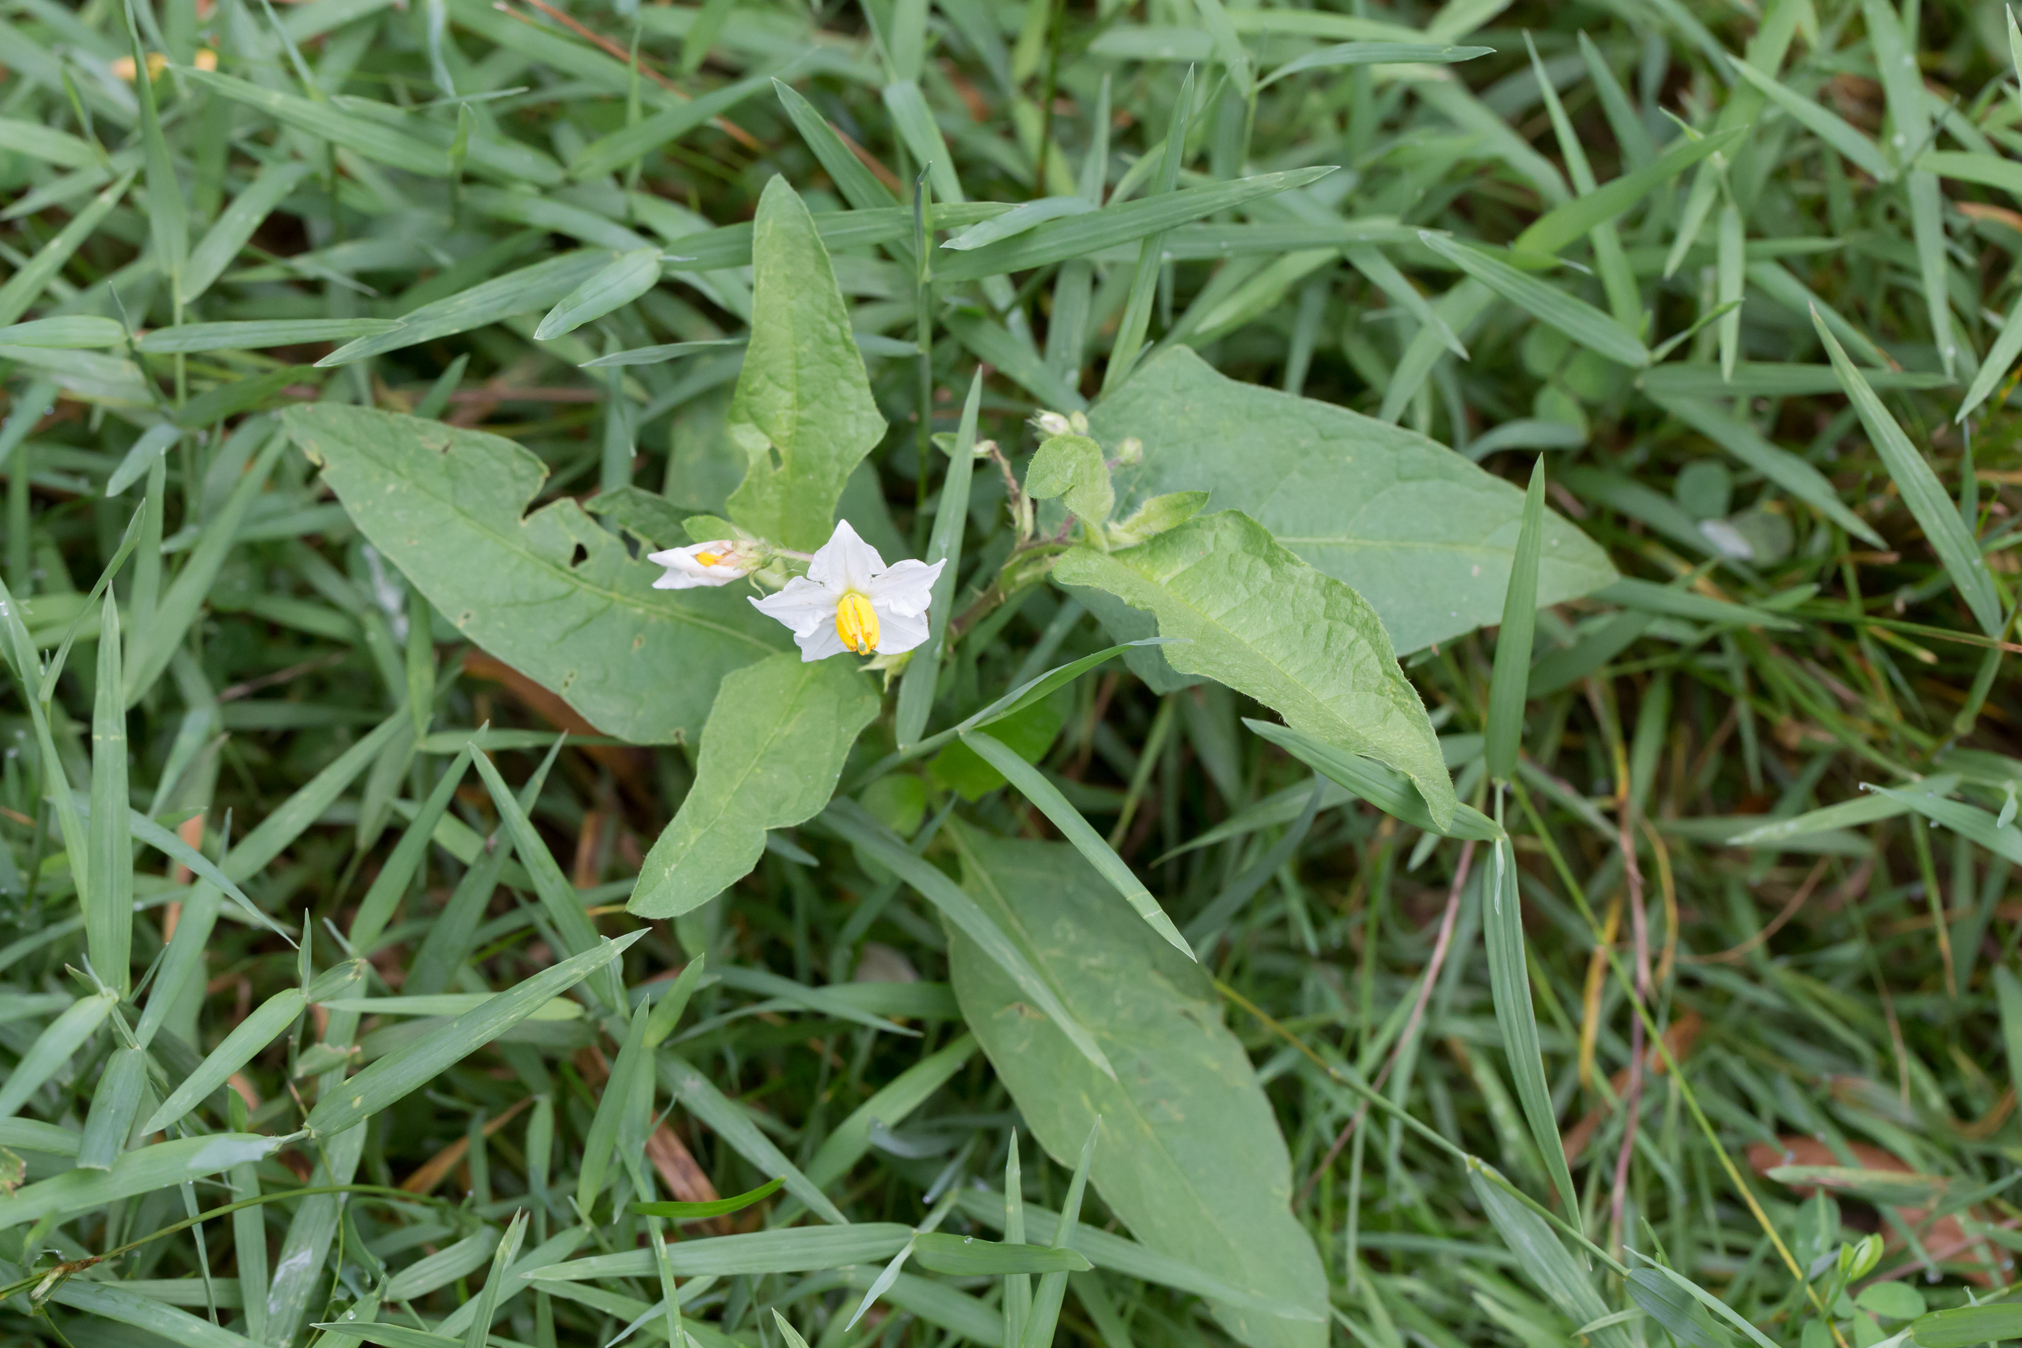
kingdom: Plantae
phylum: Tracheophyta
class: Magnoliopsida
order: Solanales
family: Solanaceae
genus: Solanum
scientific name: Solanum carolinense
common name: Horse-nettle
